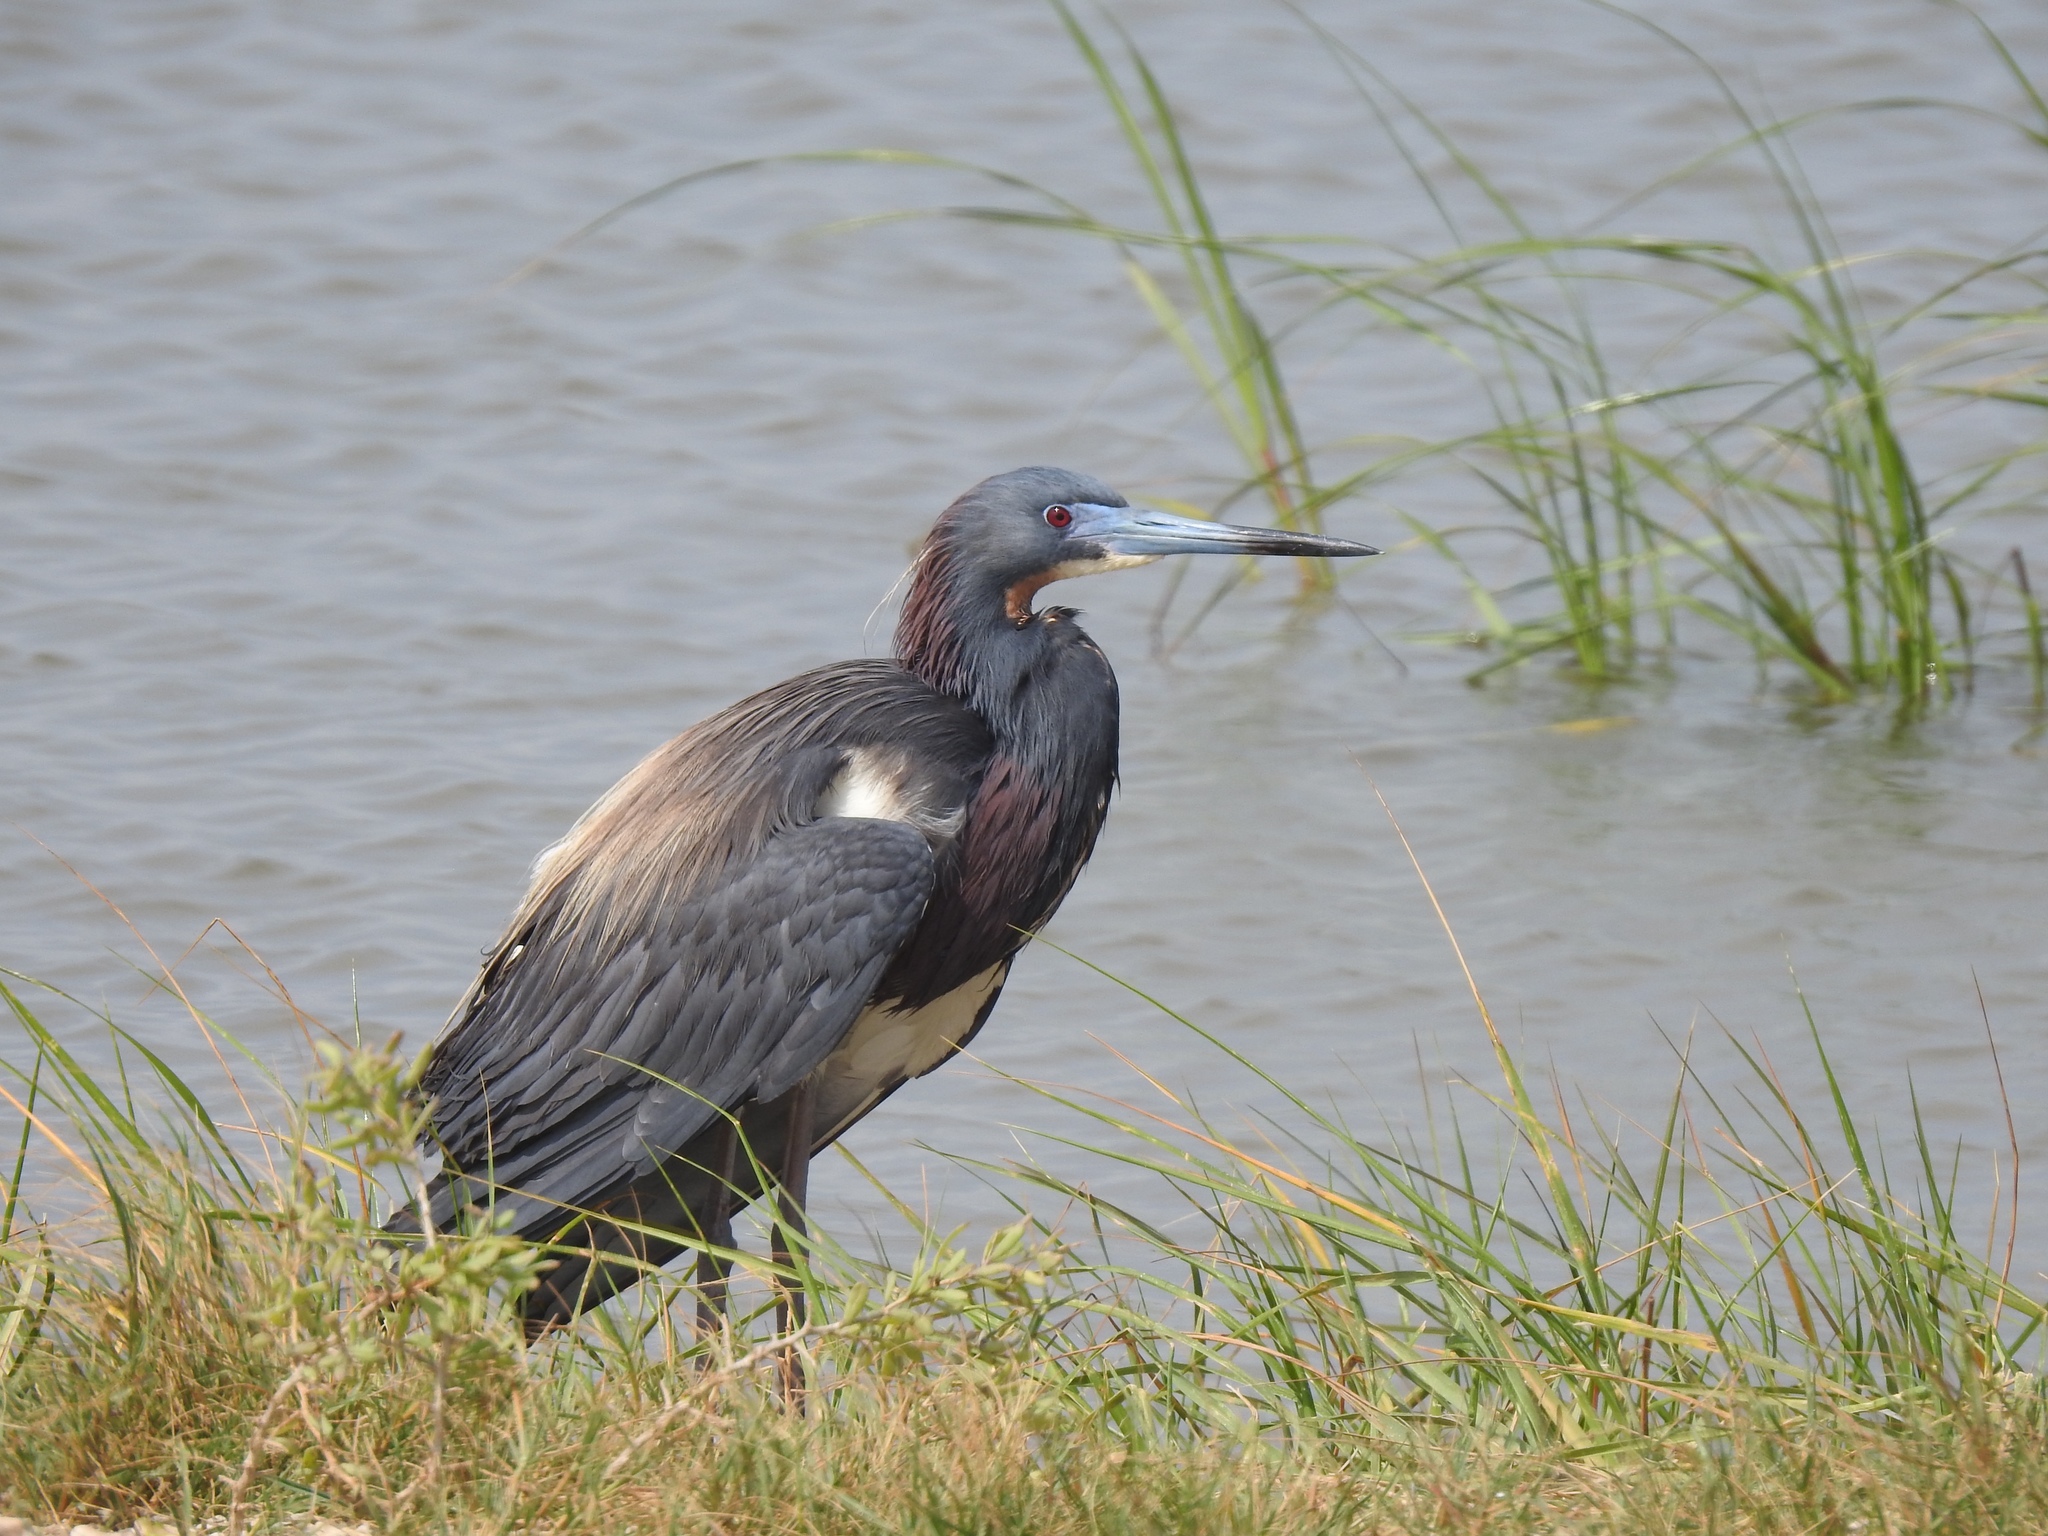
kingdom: Animalia
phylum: Chordata
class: Aves
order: Pelecaniformes
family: Ardeidae
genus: Egretta
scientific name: Egretta tricolor
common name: Tricolored heron
